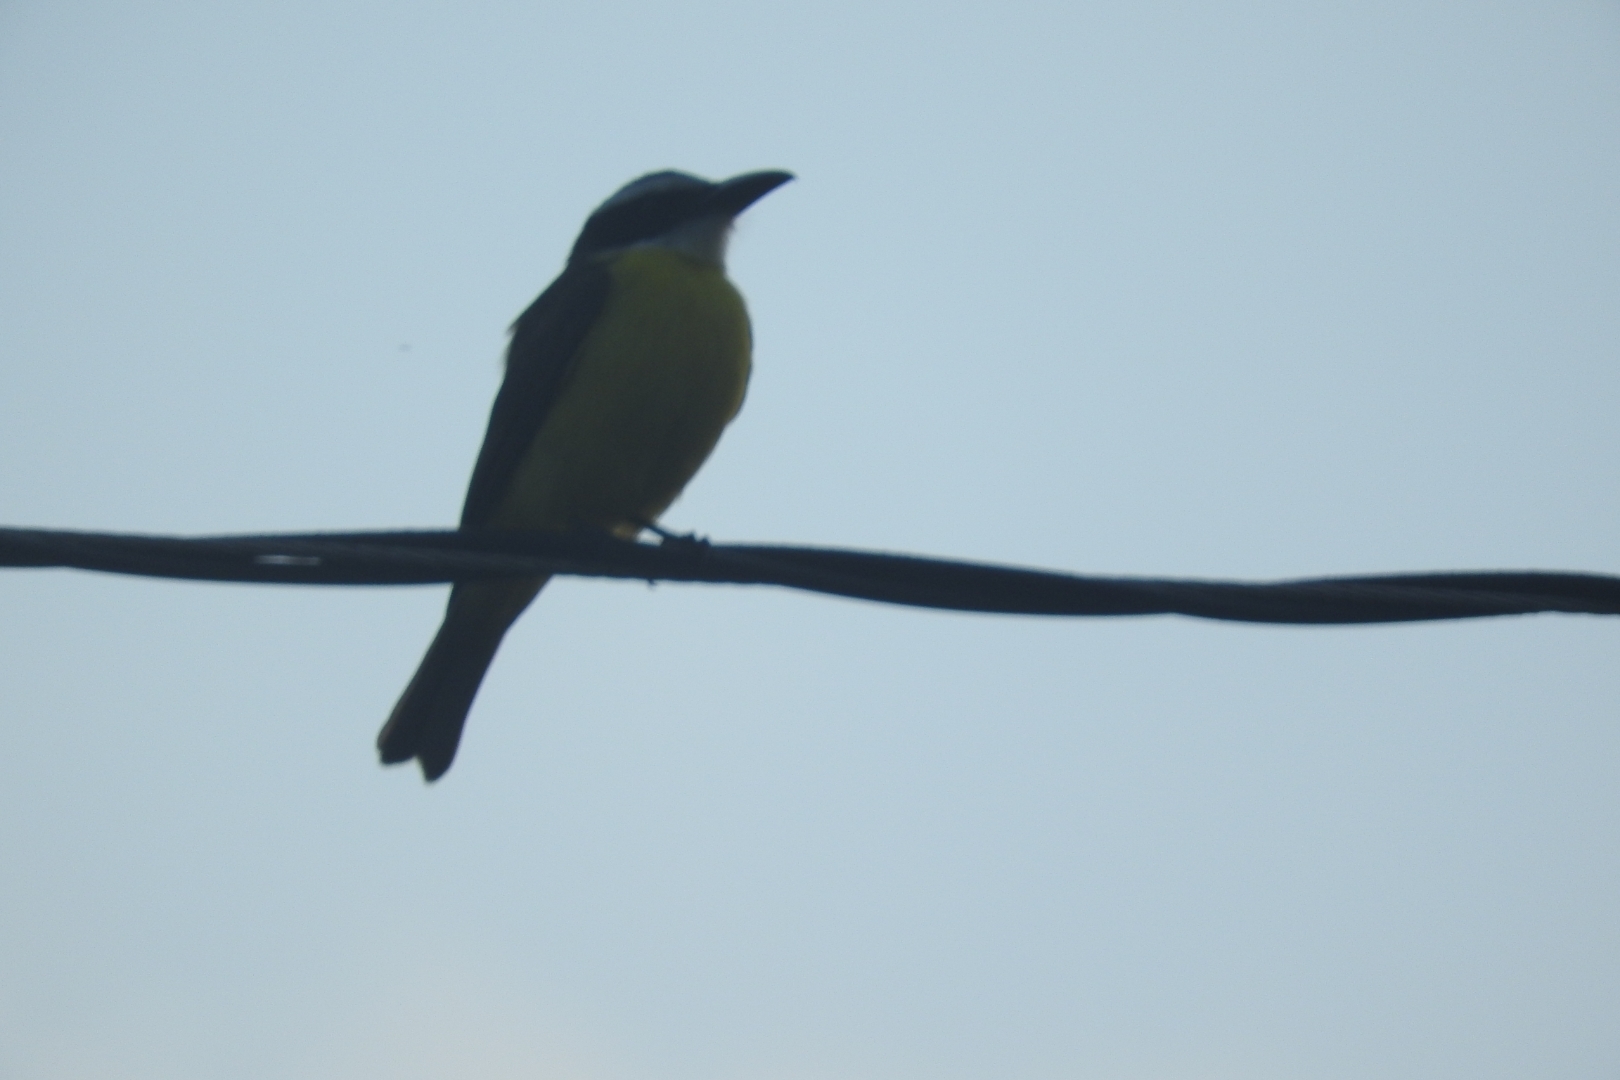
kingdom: Animalia
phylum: Chordata
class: Aves
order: Passeriformes
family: Tyrannidae
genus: Megarynchus
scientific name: Megarynchus pitangua
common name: Boat-billed flycatcher
